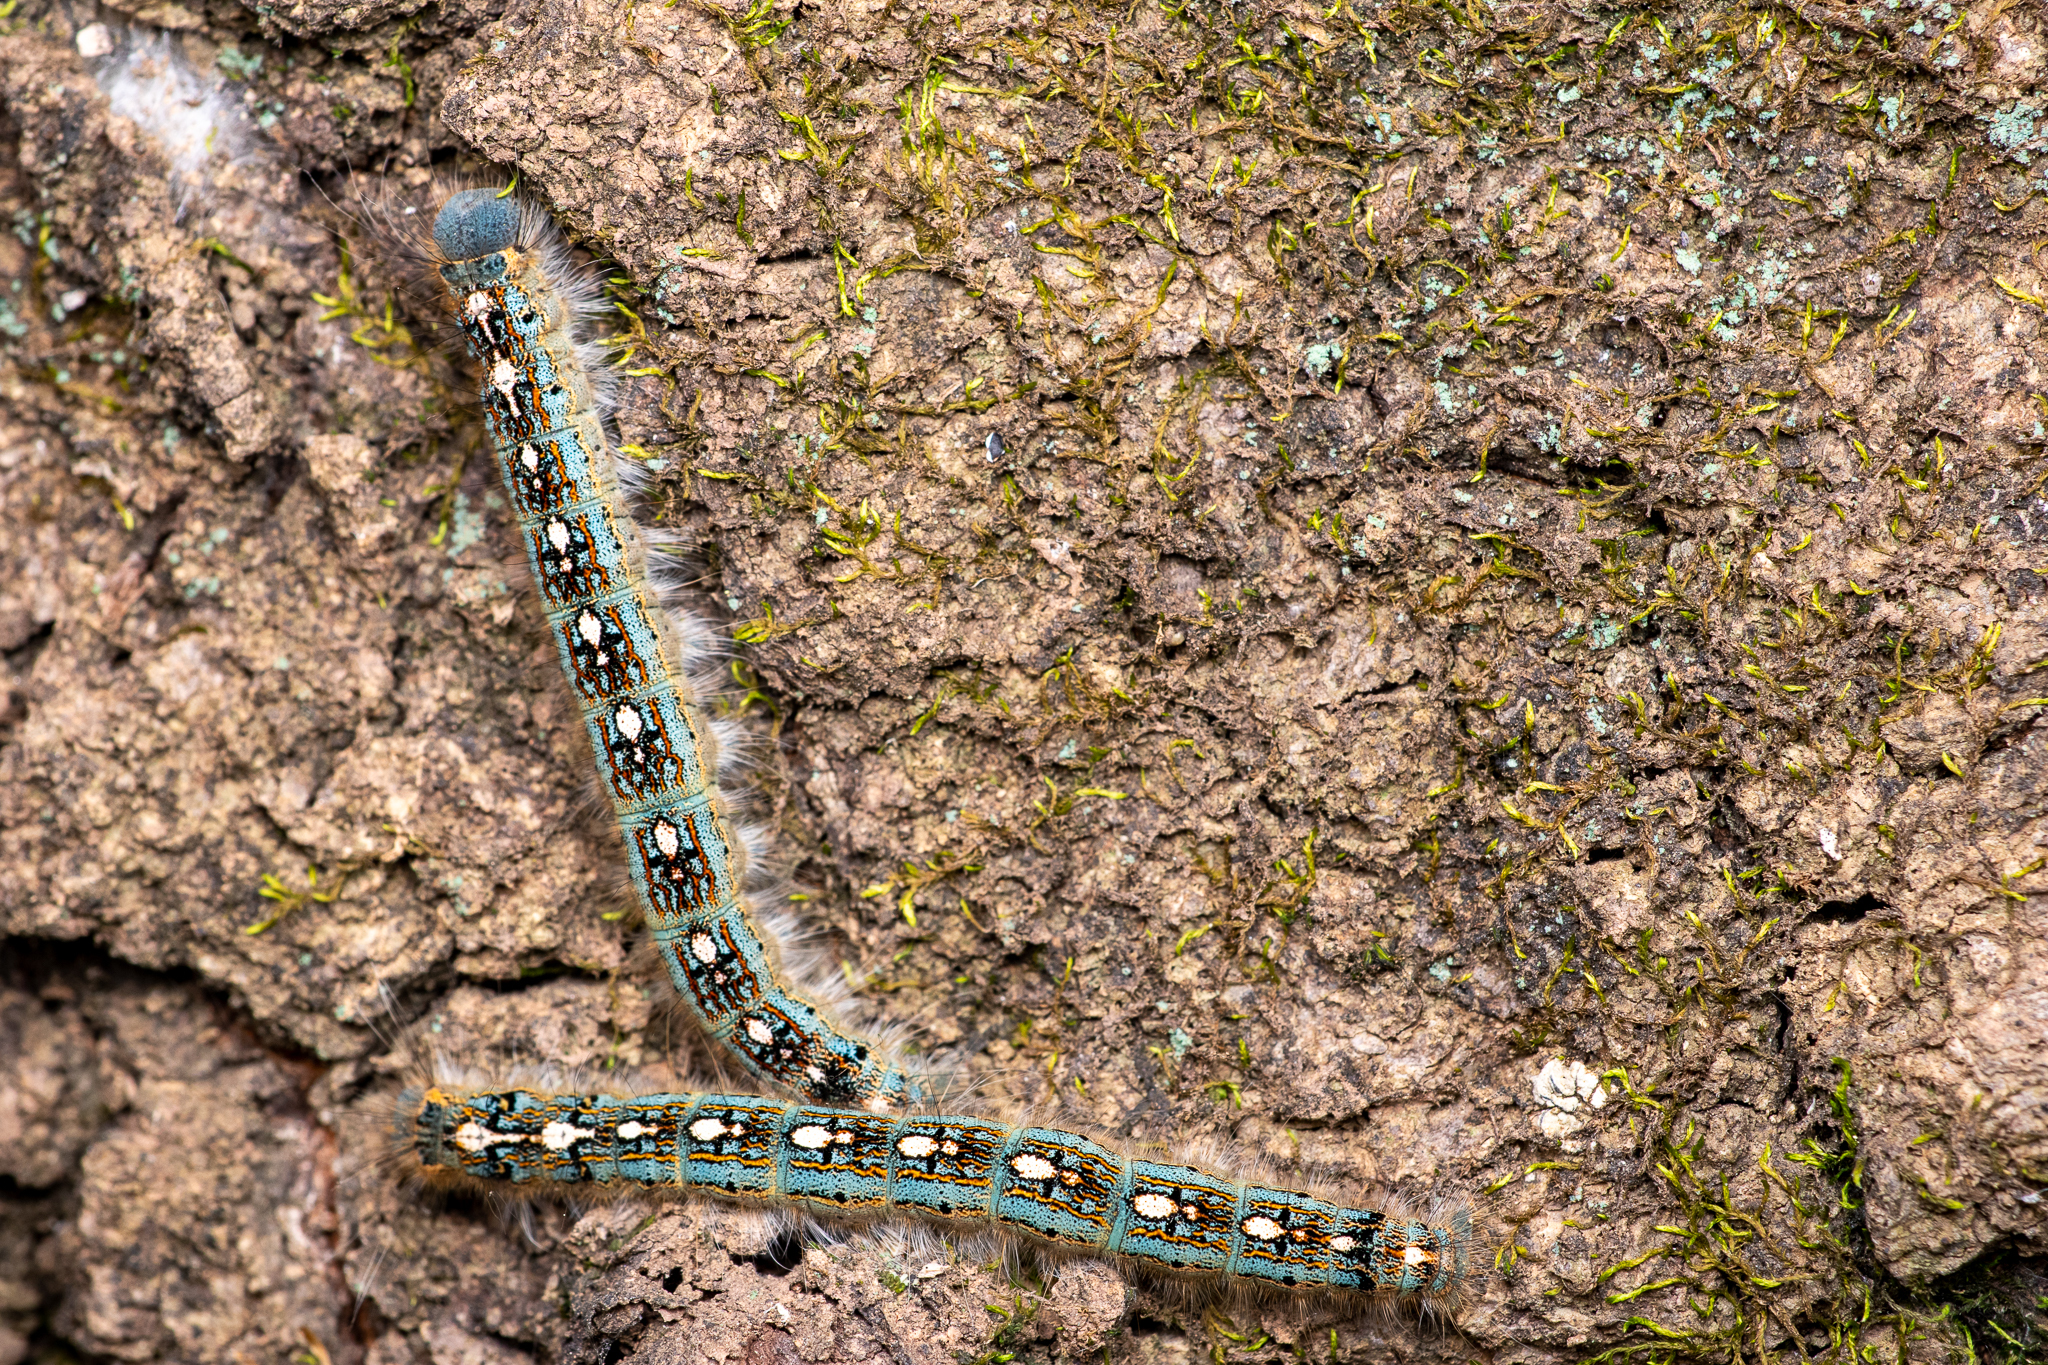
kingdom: Animalia
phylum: Arthropoda
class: Insecta
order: Lepidoptera
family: Lasiocampidae
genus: Malacosoma
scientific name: Malacosoma disstria
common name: Forest tent caterpillar
